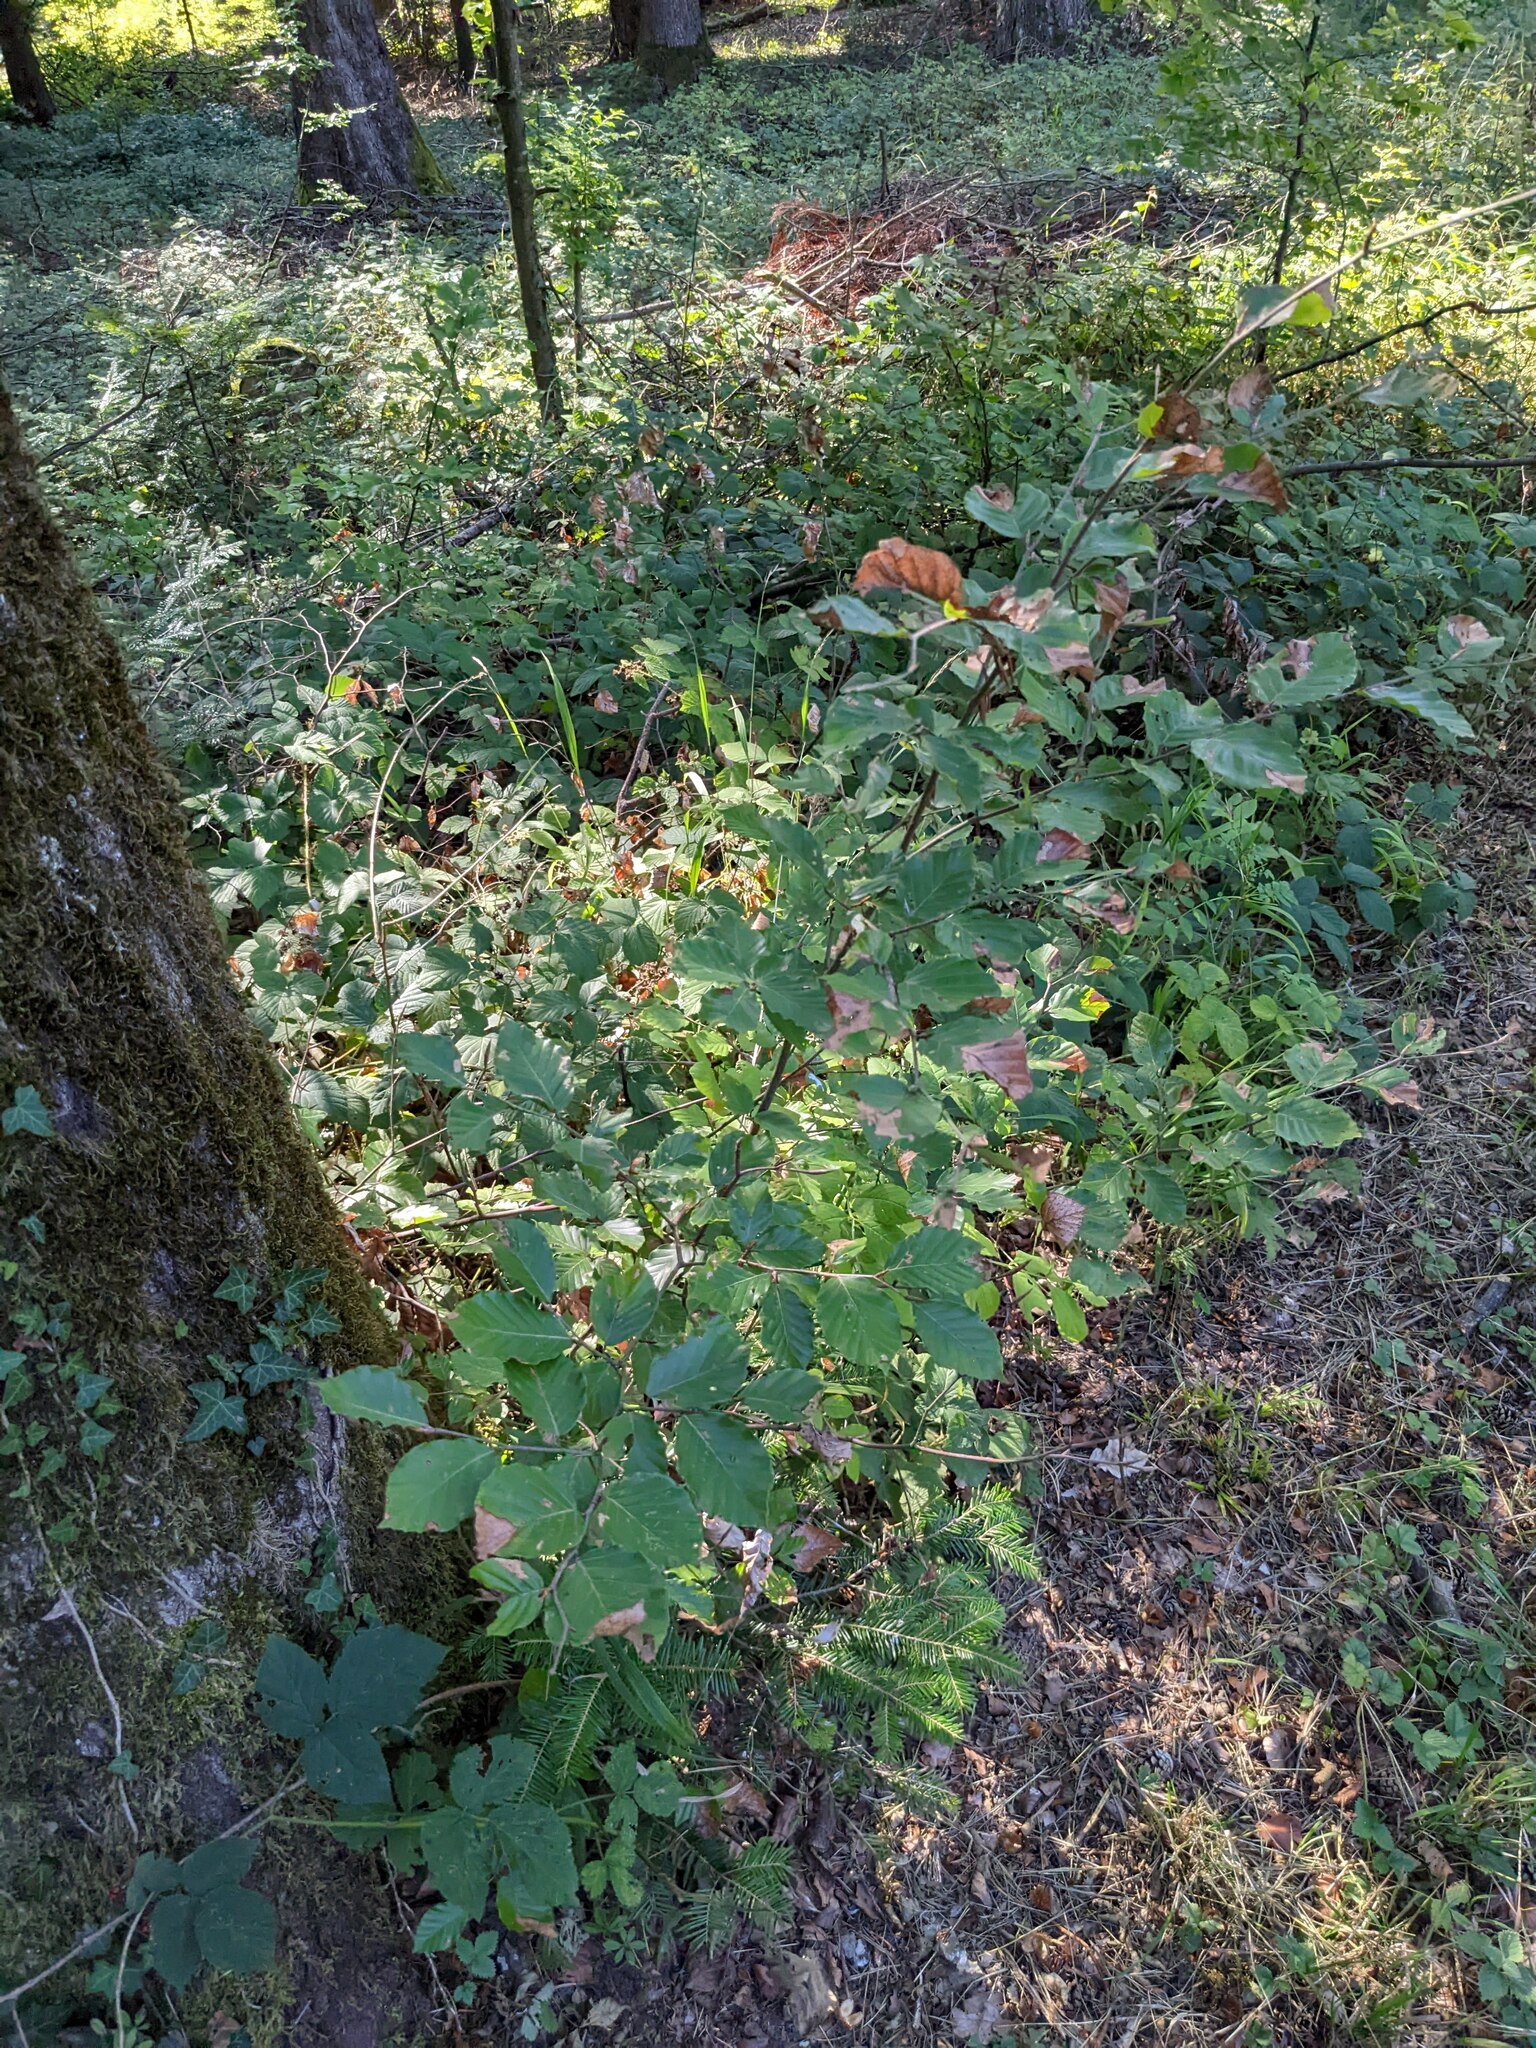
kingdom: Plantae
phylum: Tracheophyta
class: Magnoliopsida
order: Fagales
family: Fagaceae
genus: Fagus
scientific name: Fagus sylvatica
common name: Beech
